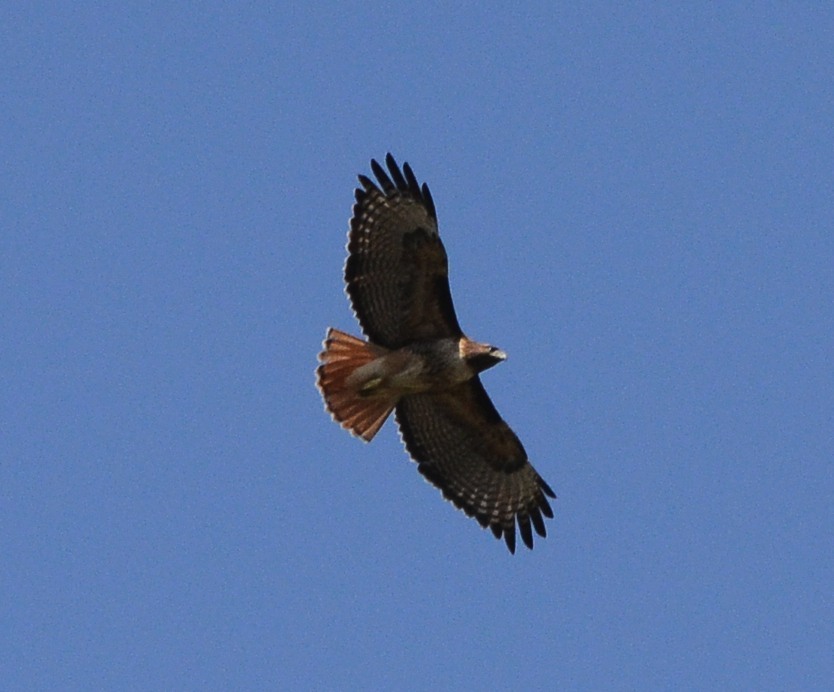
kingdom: Animalia
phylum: Chordata
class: Aves
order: Accipitriformes
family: Accipitridae
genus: Buteo
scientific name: Buteo jamaicensis
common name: Red-tailed hawk
